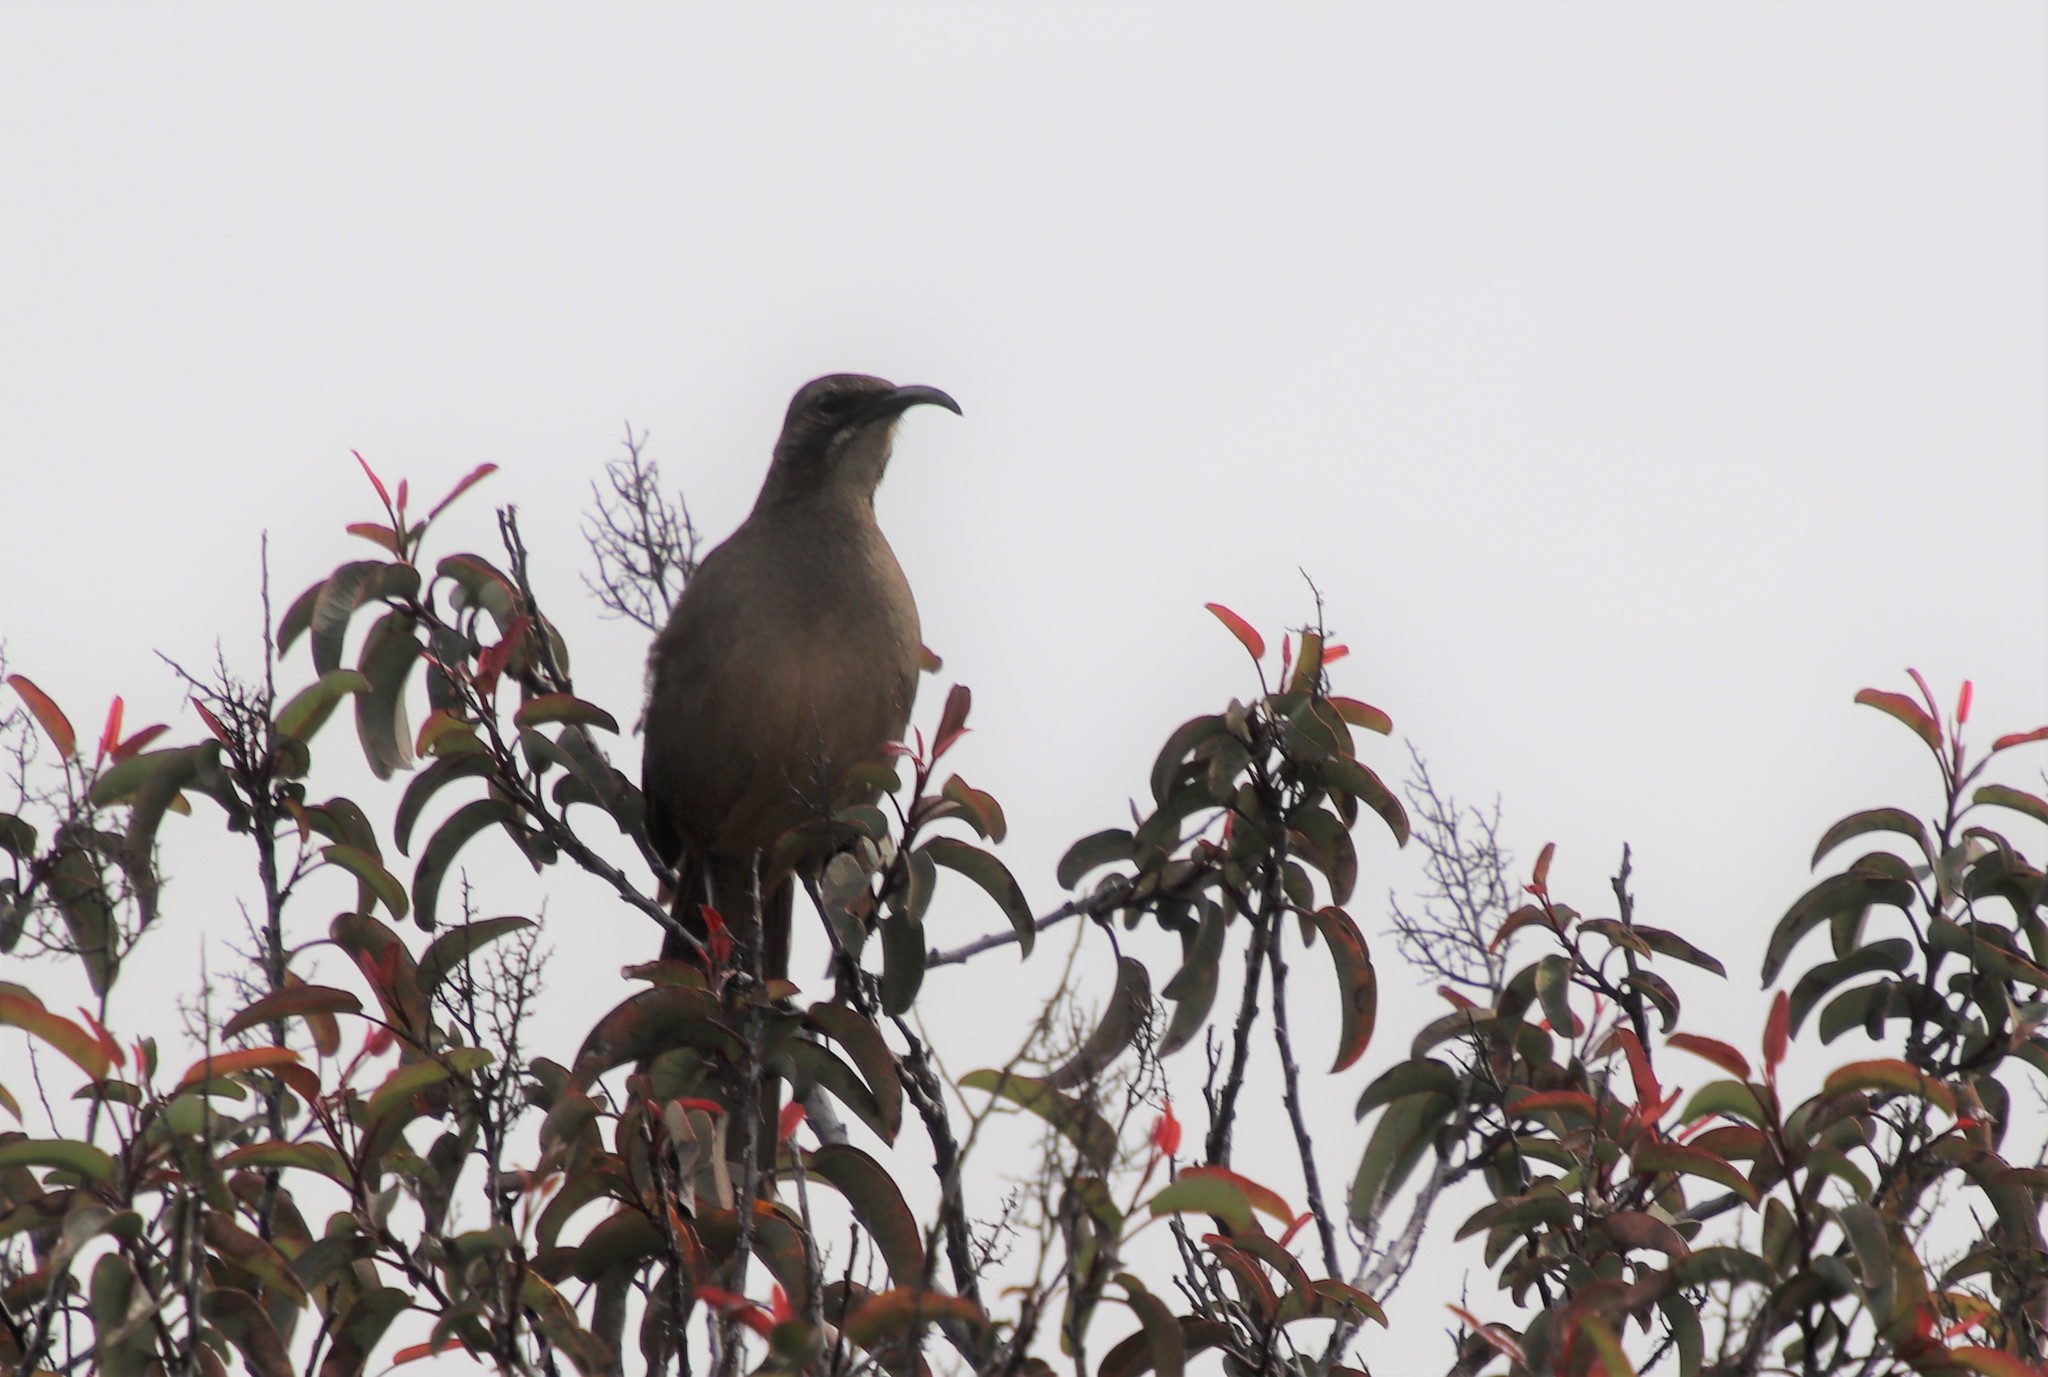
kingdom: Animalia
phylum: Chordata
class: Aves
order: Passeriformes
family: Mimidae
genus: Toxostoma
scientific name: Toxostoma redivivum
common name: California thrasher
